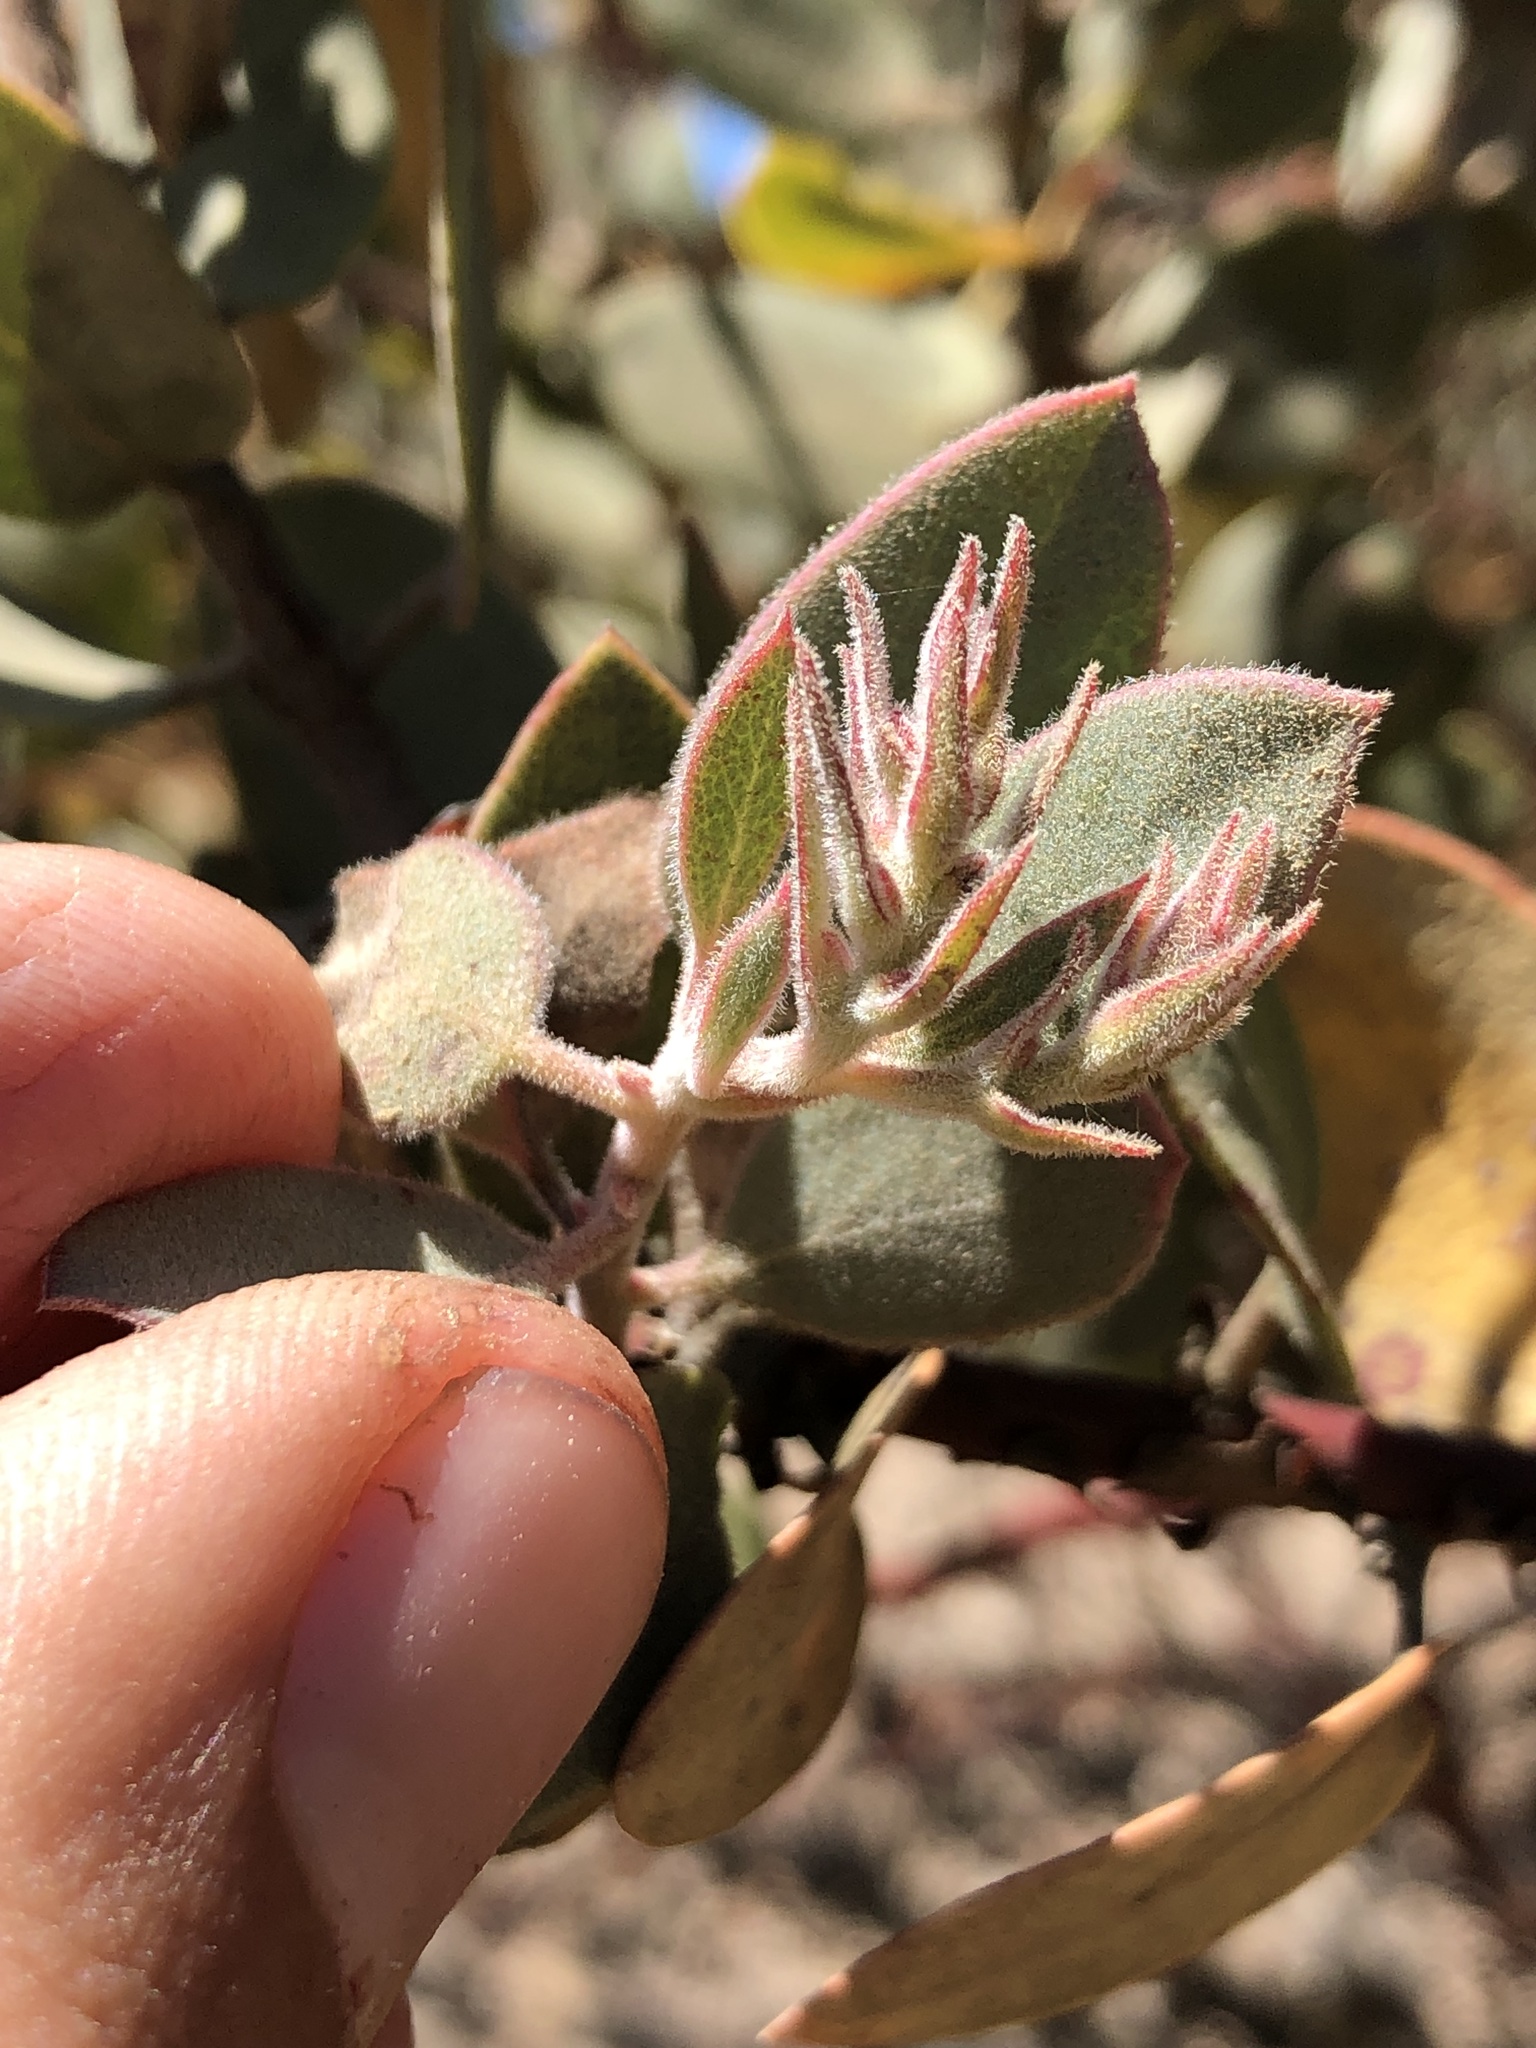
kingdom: Plantae
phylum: Tracheophyta
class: Magnoliopsida
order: Ericales
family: Ericaceae
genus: Arctostaphylos
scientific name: Arctostaphylos obispoensis
